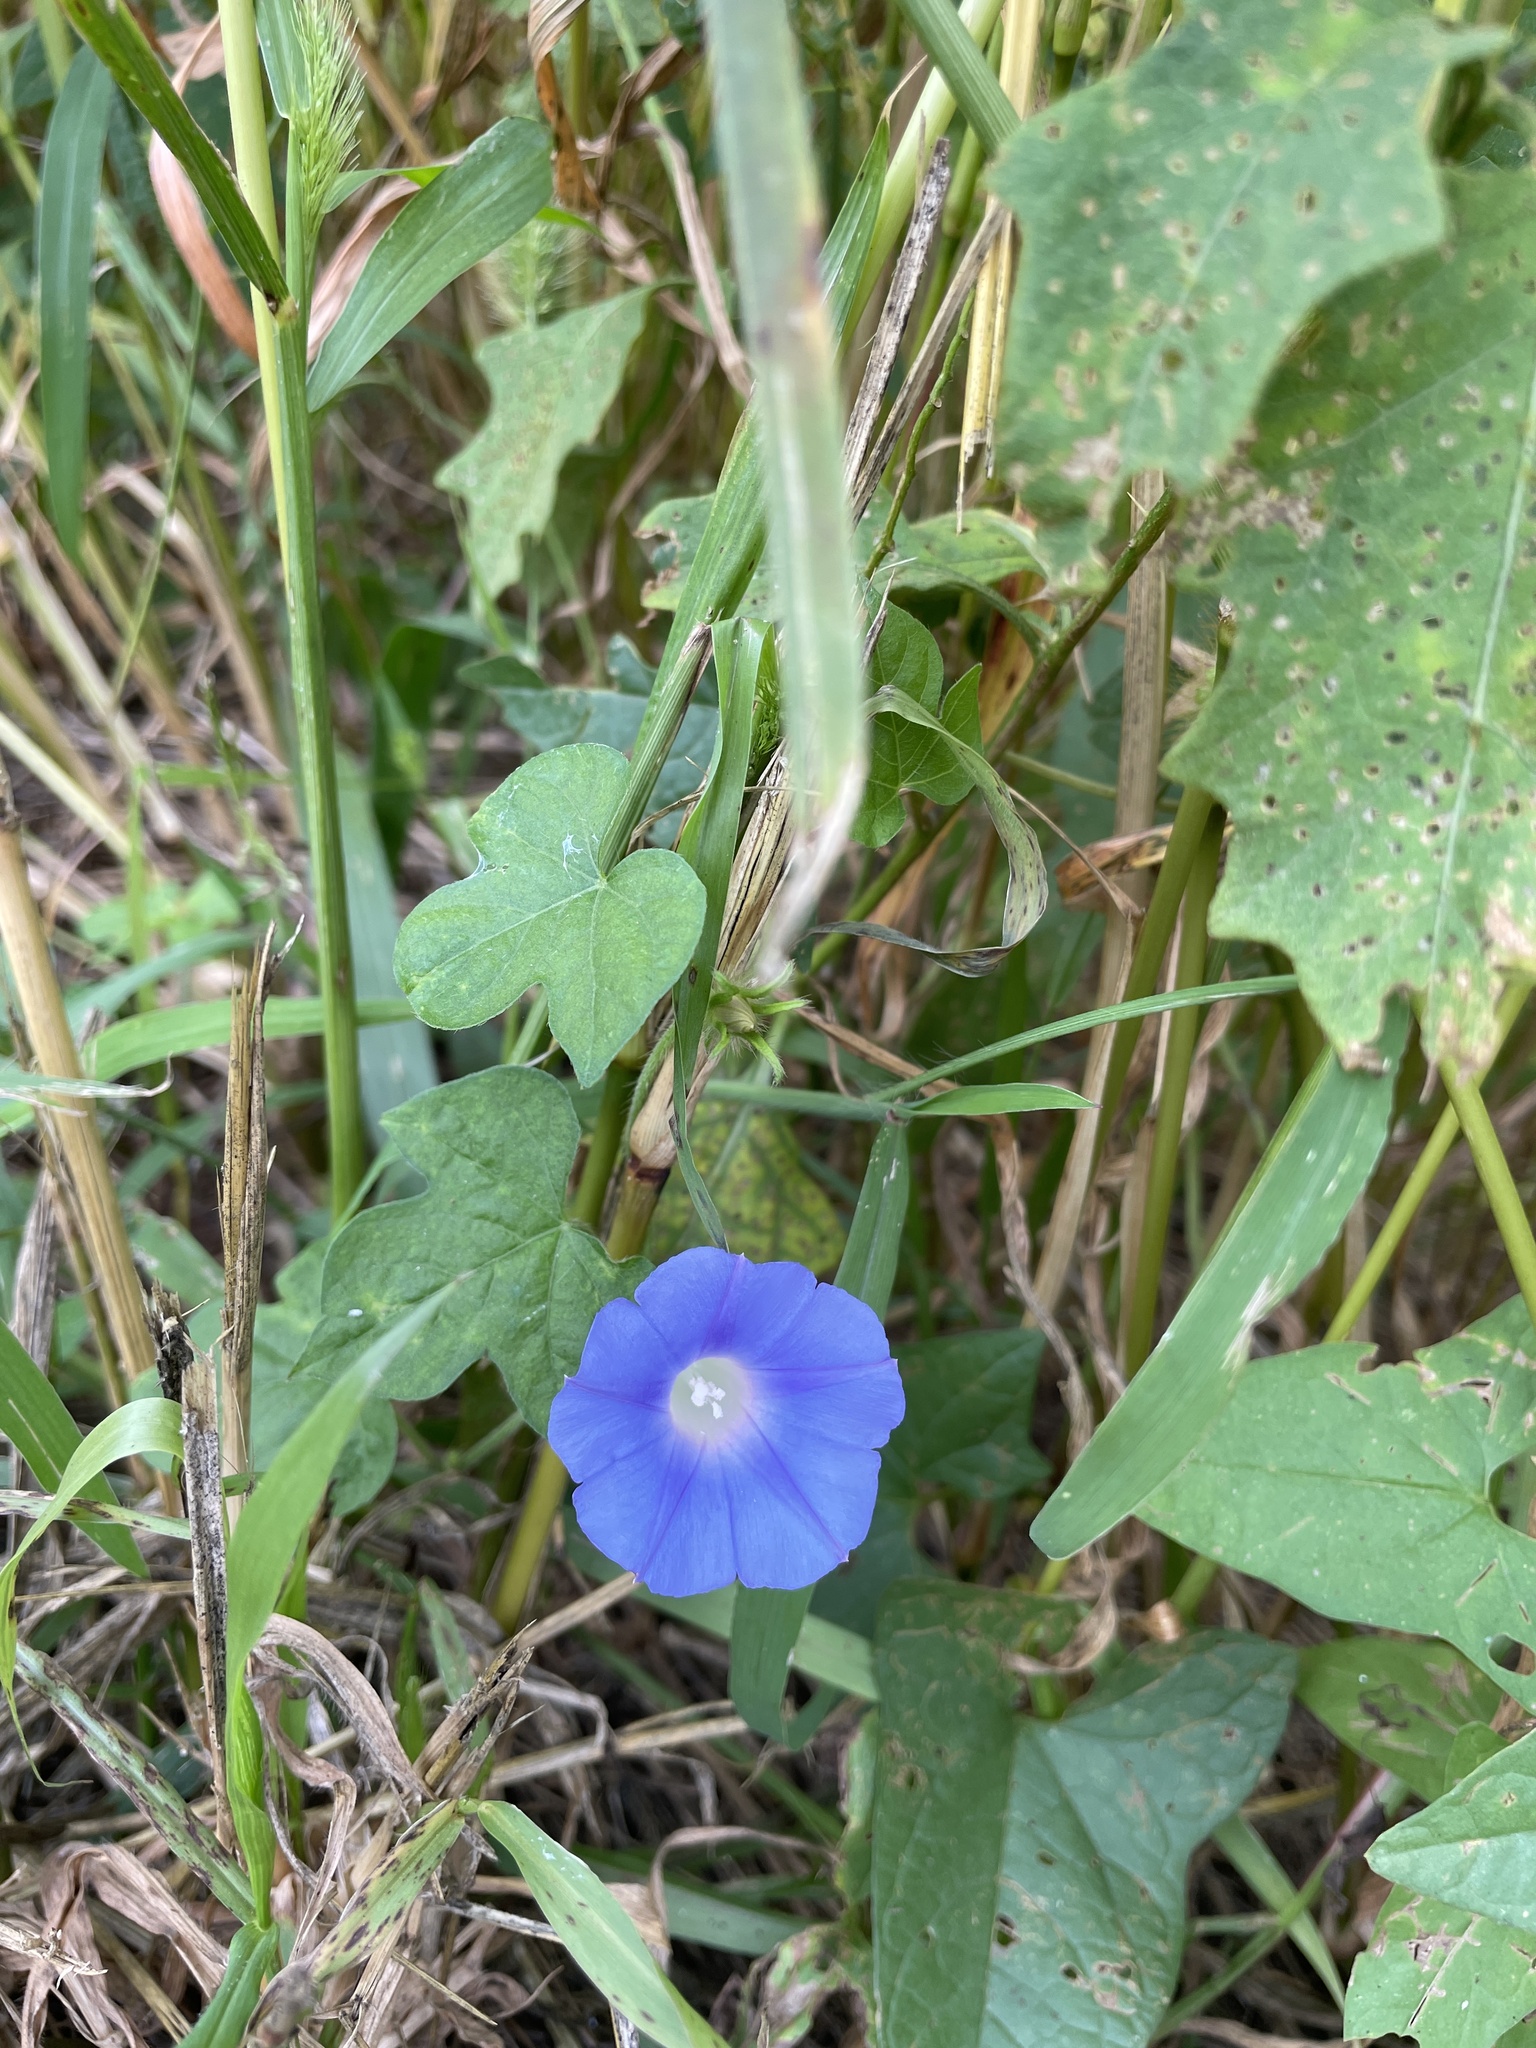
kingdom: Plantae
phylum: Tracheophyta
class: Magnoliopsida
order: Solanales
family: Convolvulaceae
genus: Ipomoea
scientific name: Ipomoea hederacea
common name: Ivy-leaved morning-glory
